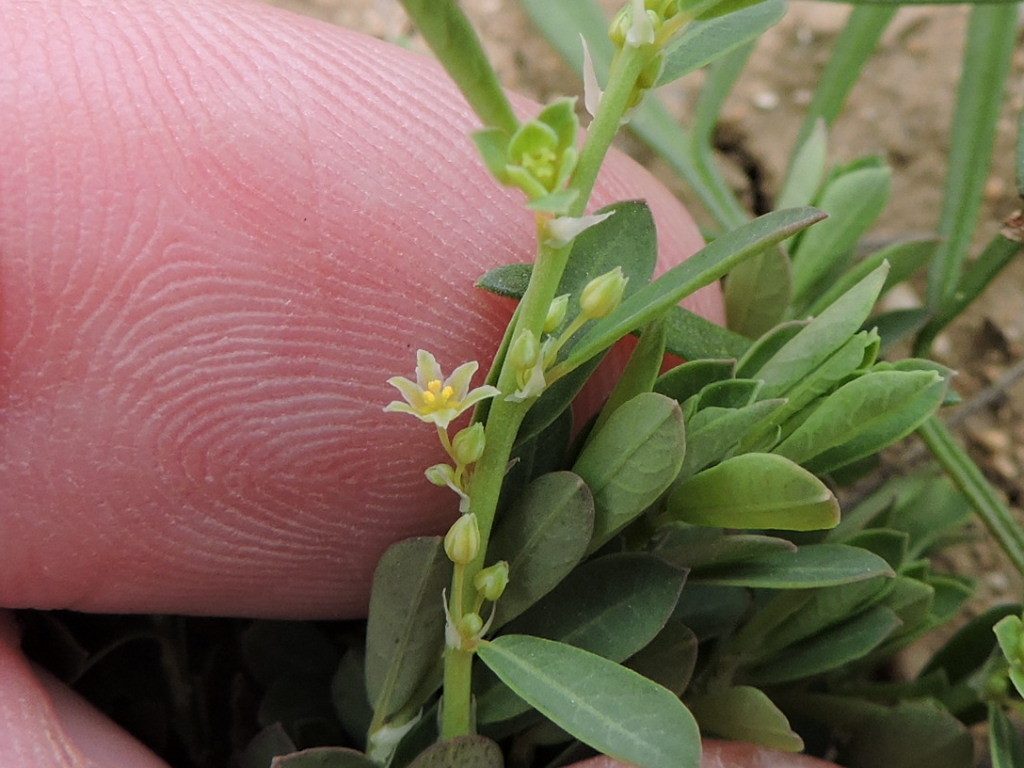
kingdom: Plantae
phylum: Tracheophyta
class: Magnoliopsida
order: Malpighiales
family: Phyllanthaceae
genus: Phyllanthus
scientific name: Phyllanthus polygonoides
